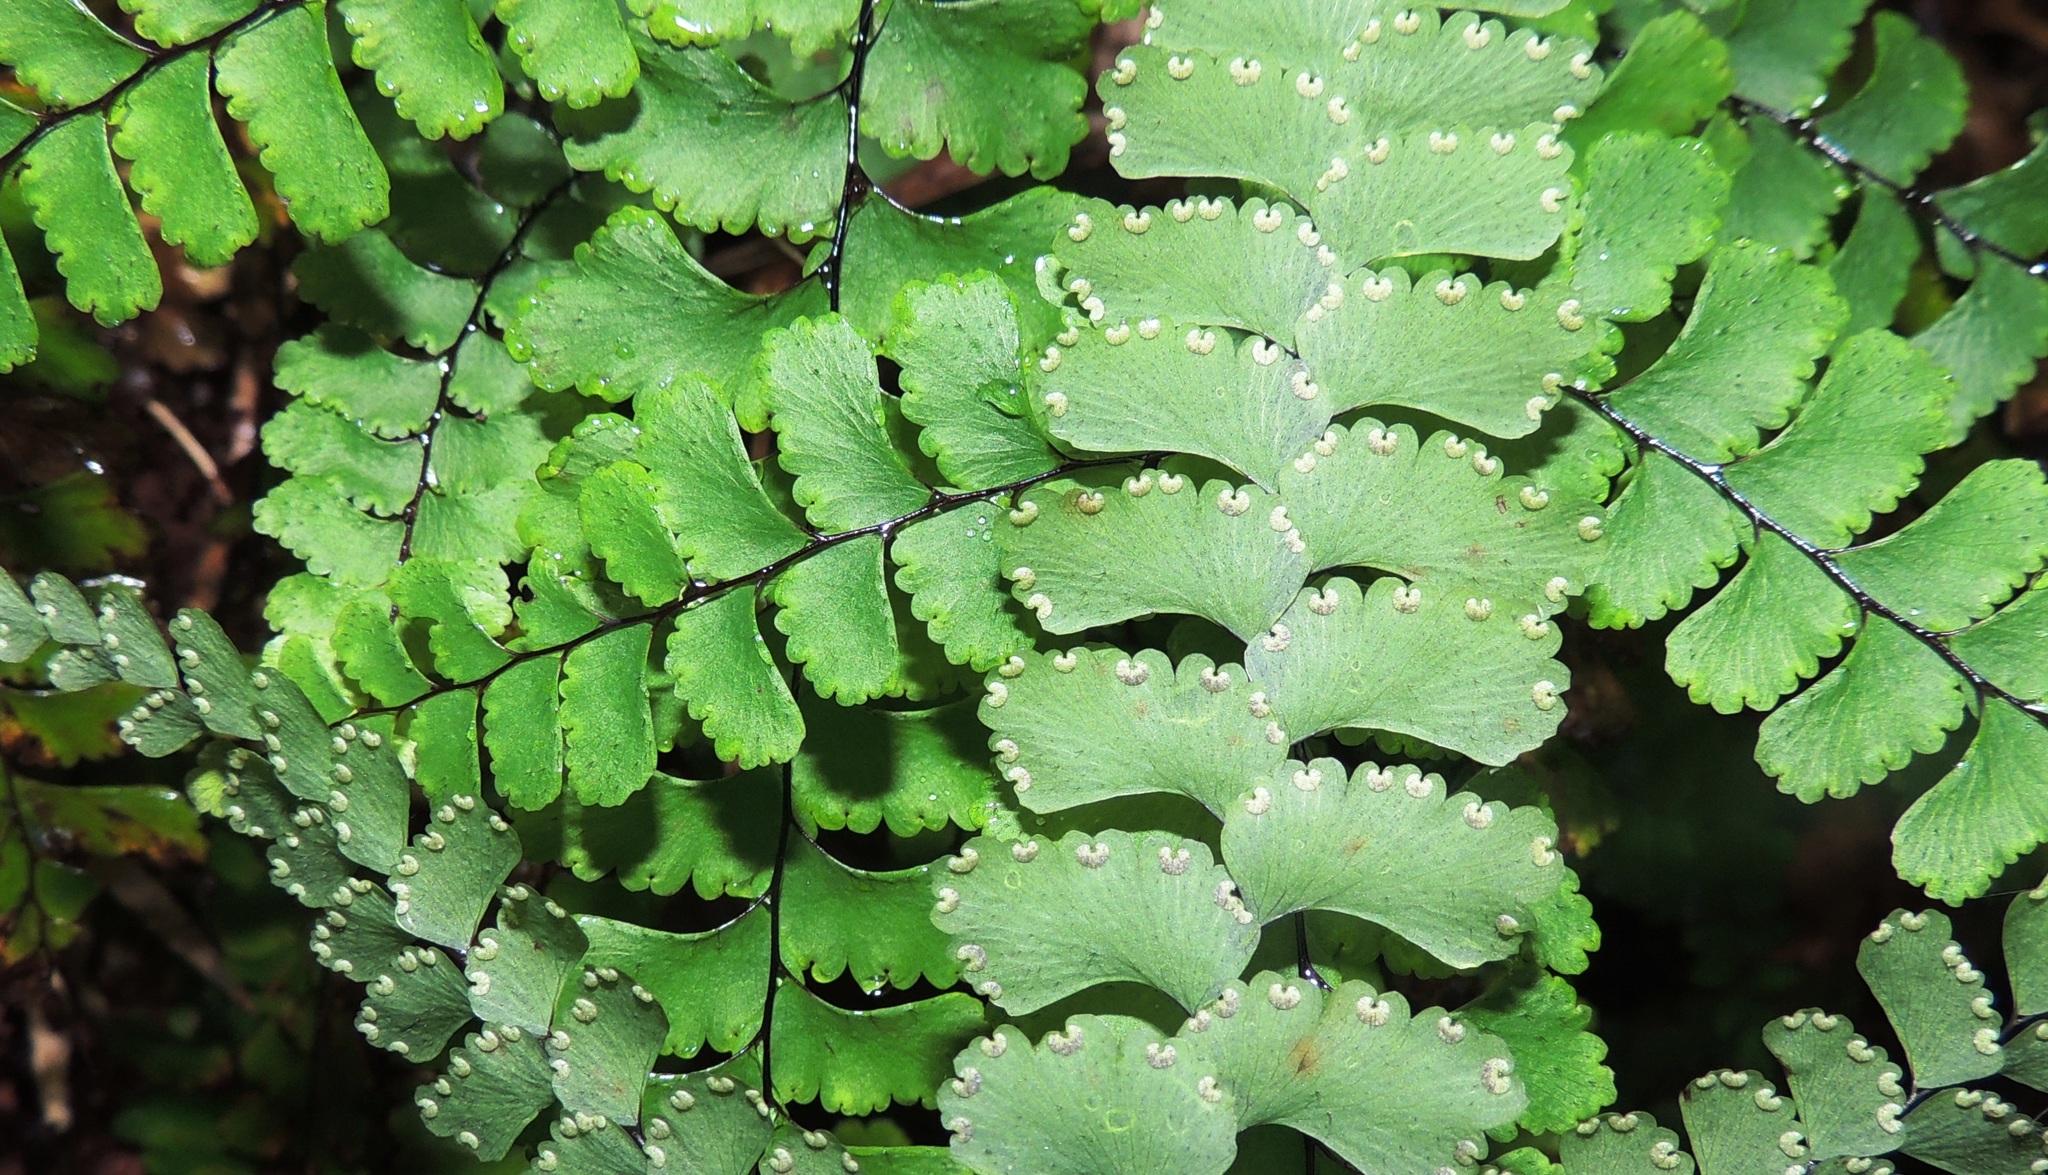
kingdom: Plantae
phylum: Tracheophyta
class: Polypodiopsida
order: Polypodiales
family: Pteridaceae
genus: Adiantum
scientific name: Adiantum diaphanum
